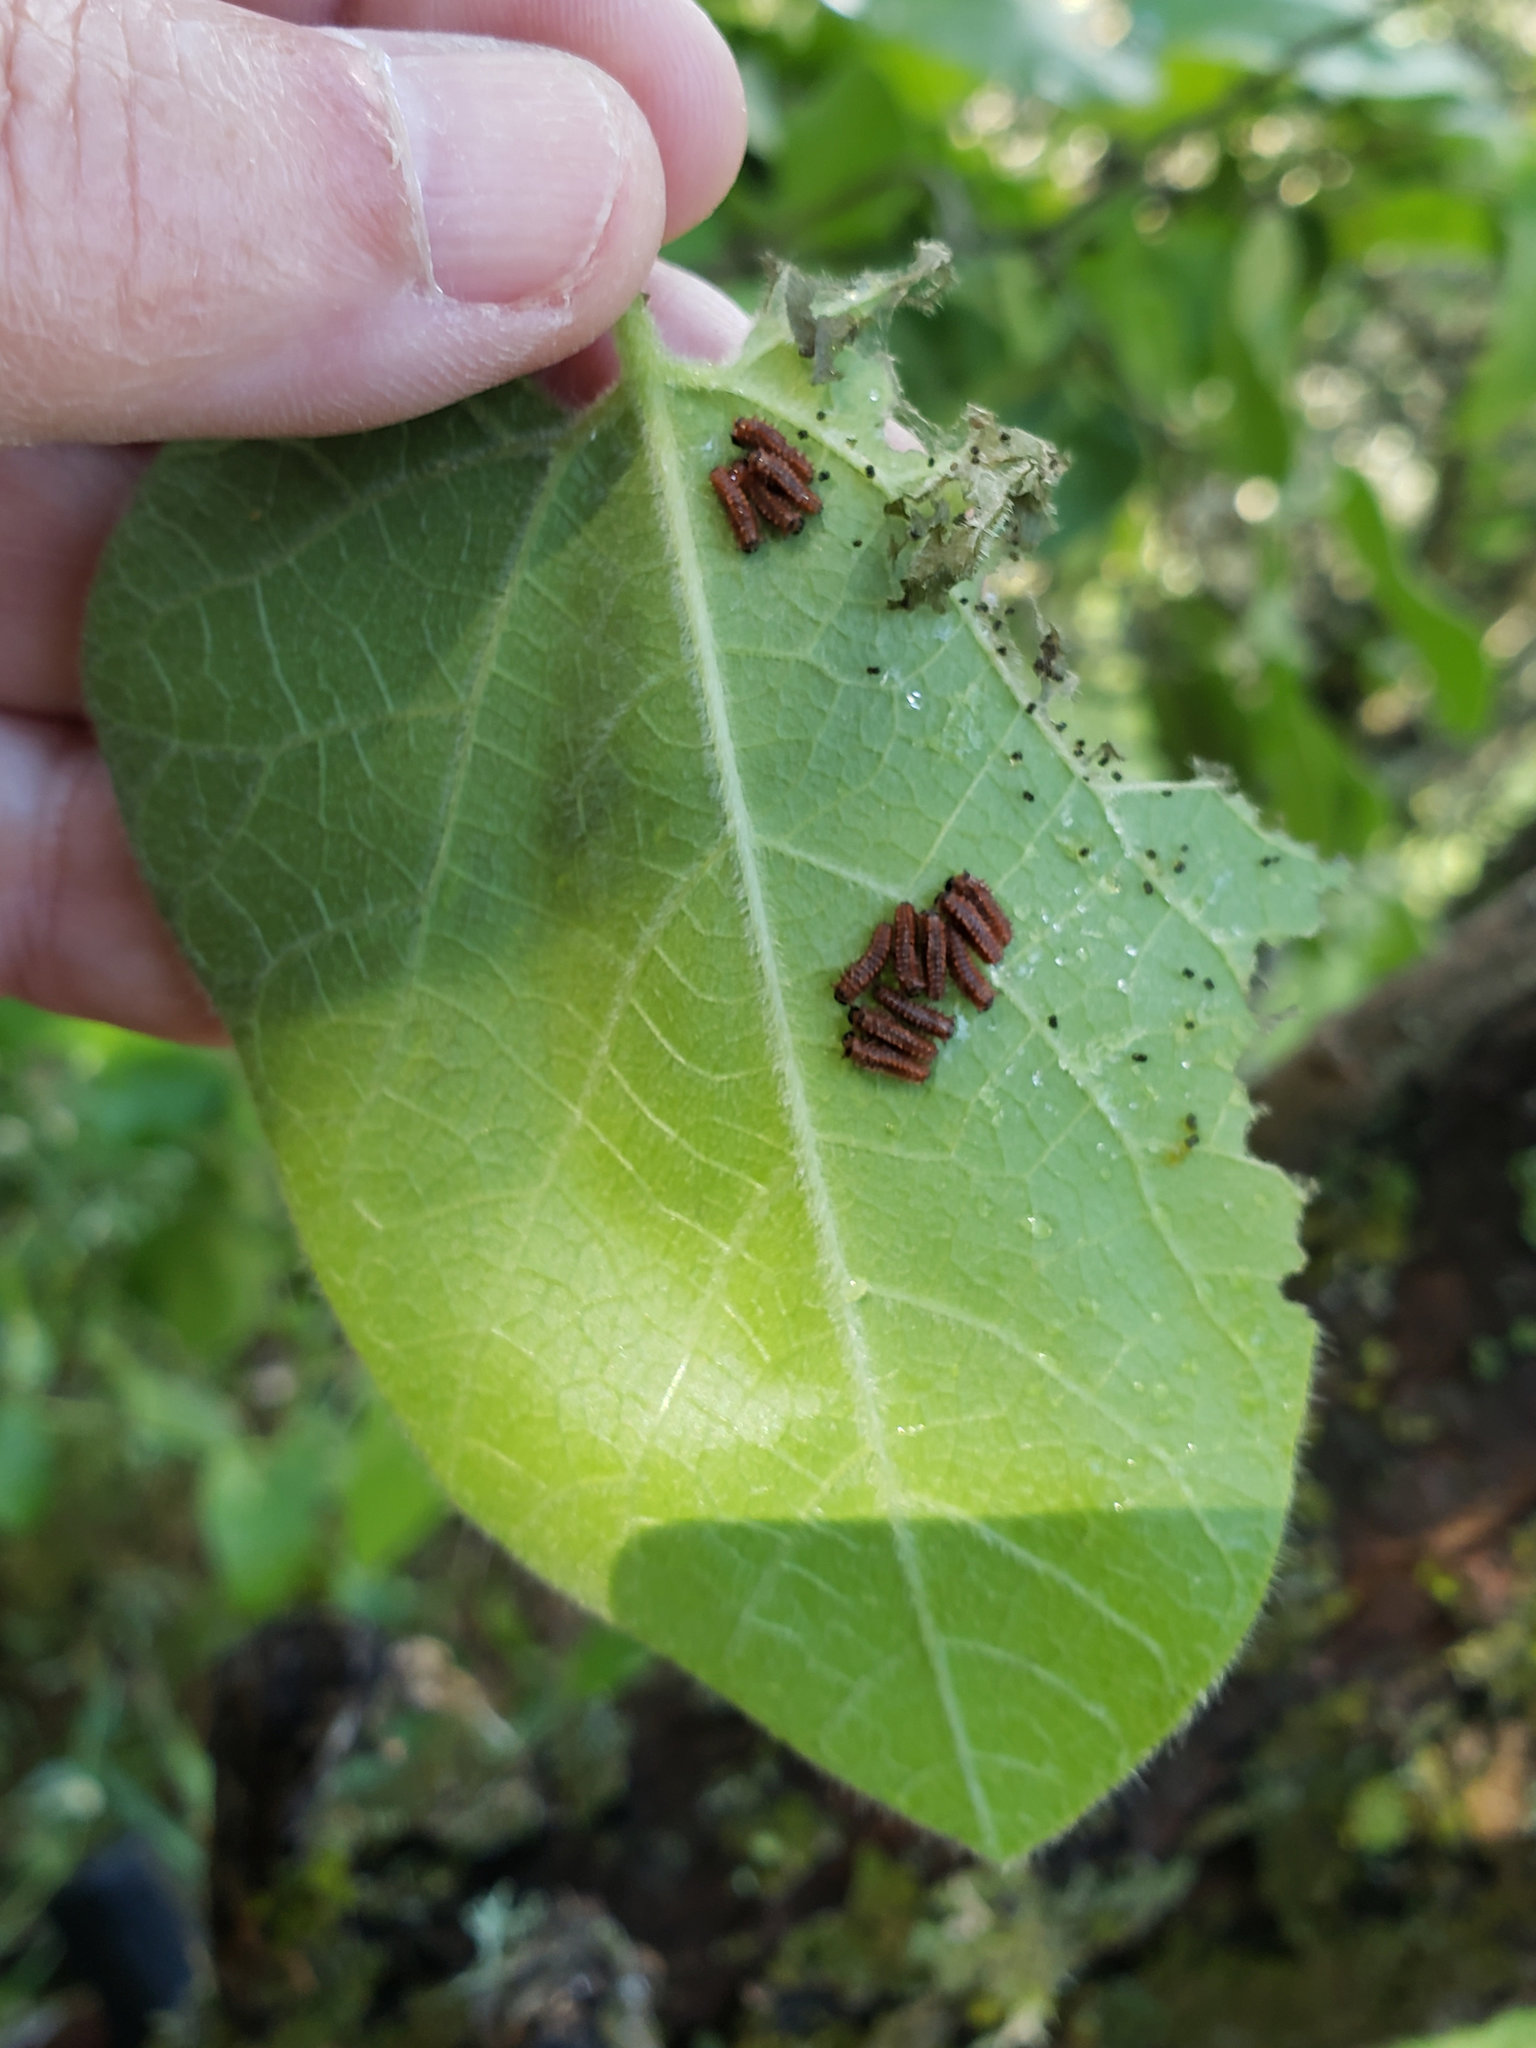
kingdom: Animalia
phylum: Arthropoda
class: Insecta
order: Lepidoptera
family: Papilionidae
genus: Battus
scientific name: Battus philenor
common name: Pipevine swallowtail
